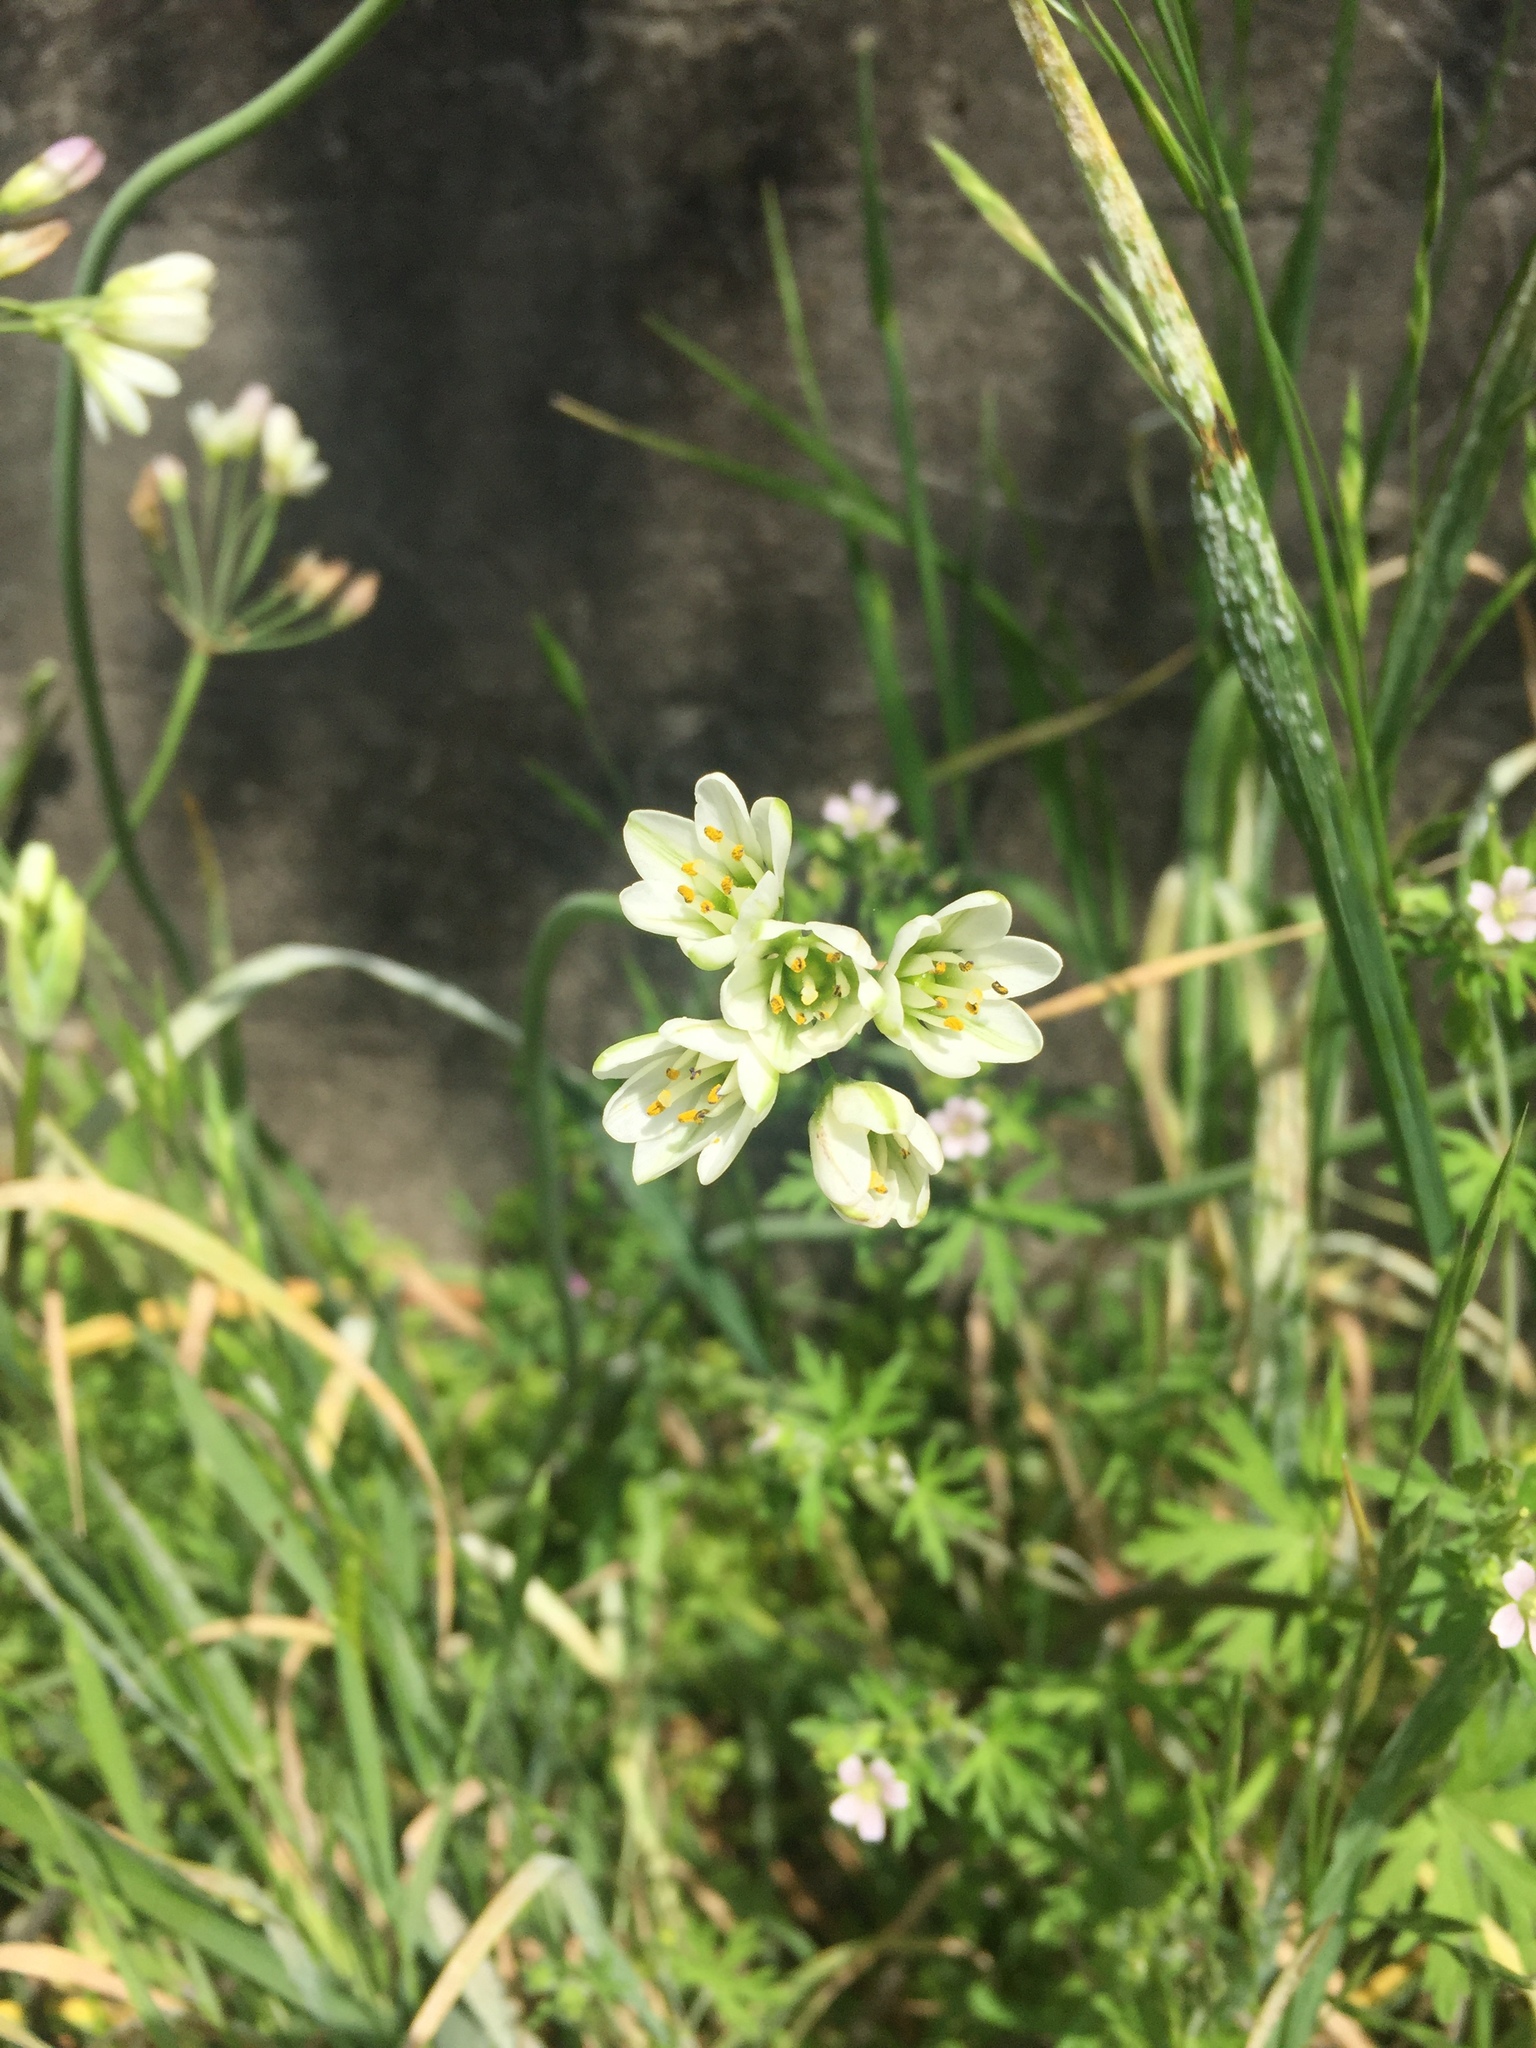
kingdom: Plantae
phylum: Tracheophyta
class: Liliopsida
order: Asparagales
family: Amaryllidaceae
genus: Nothoscordum
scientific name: Nothoscordum bivalve
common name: Crow-poison
